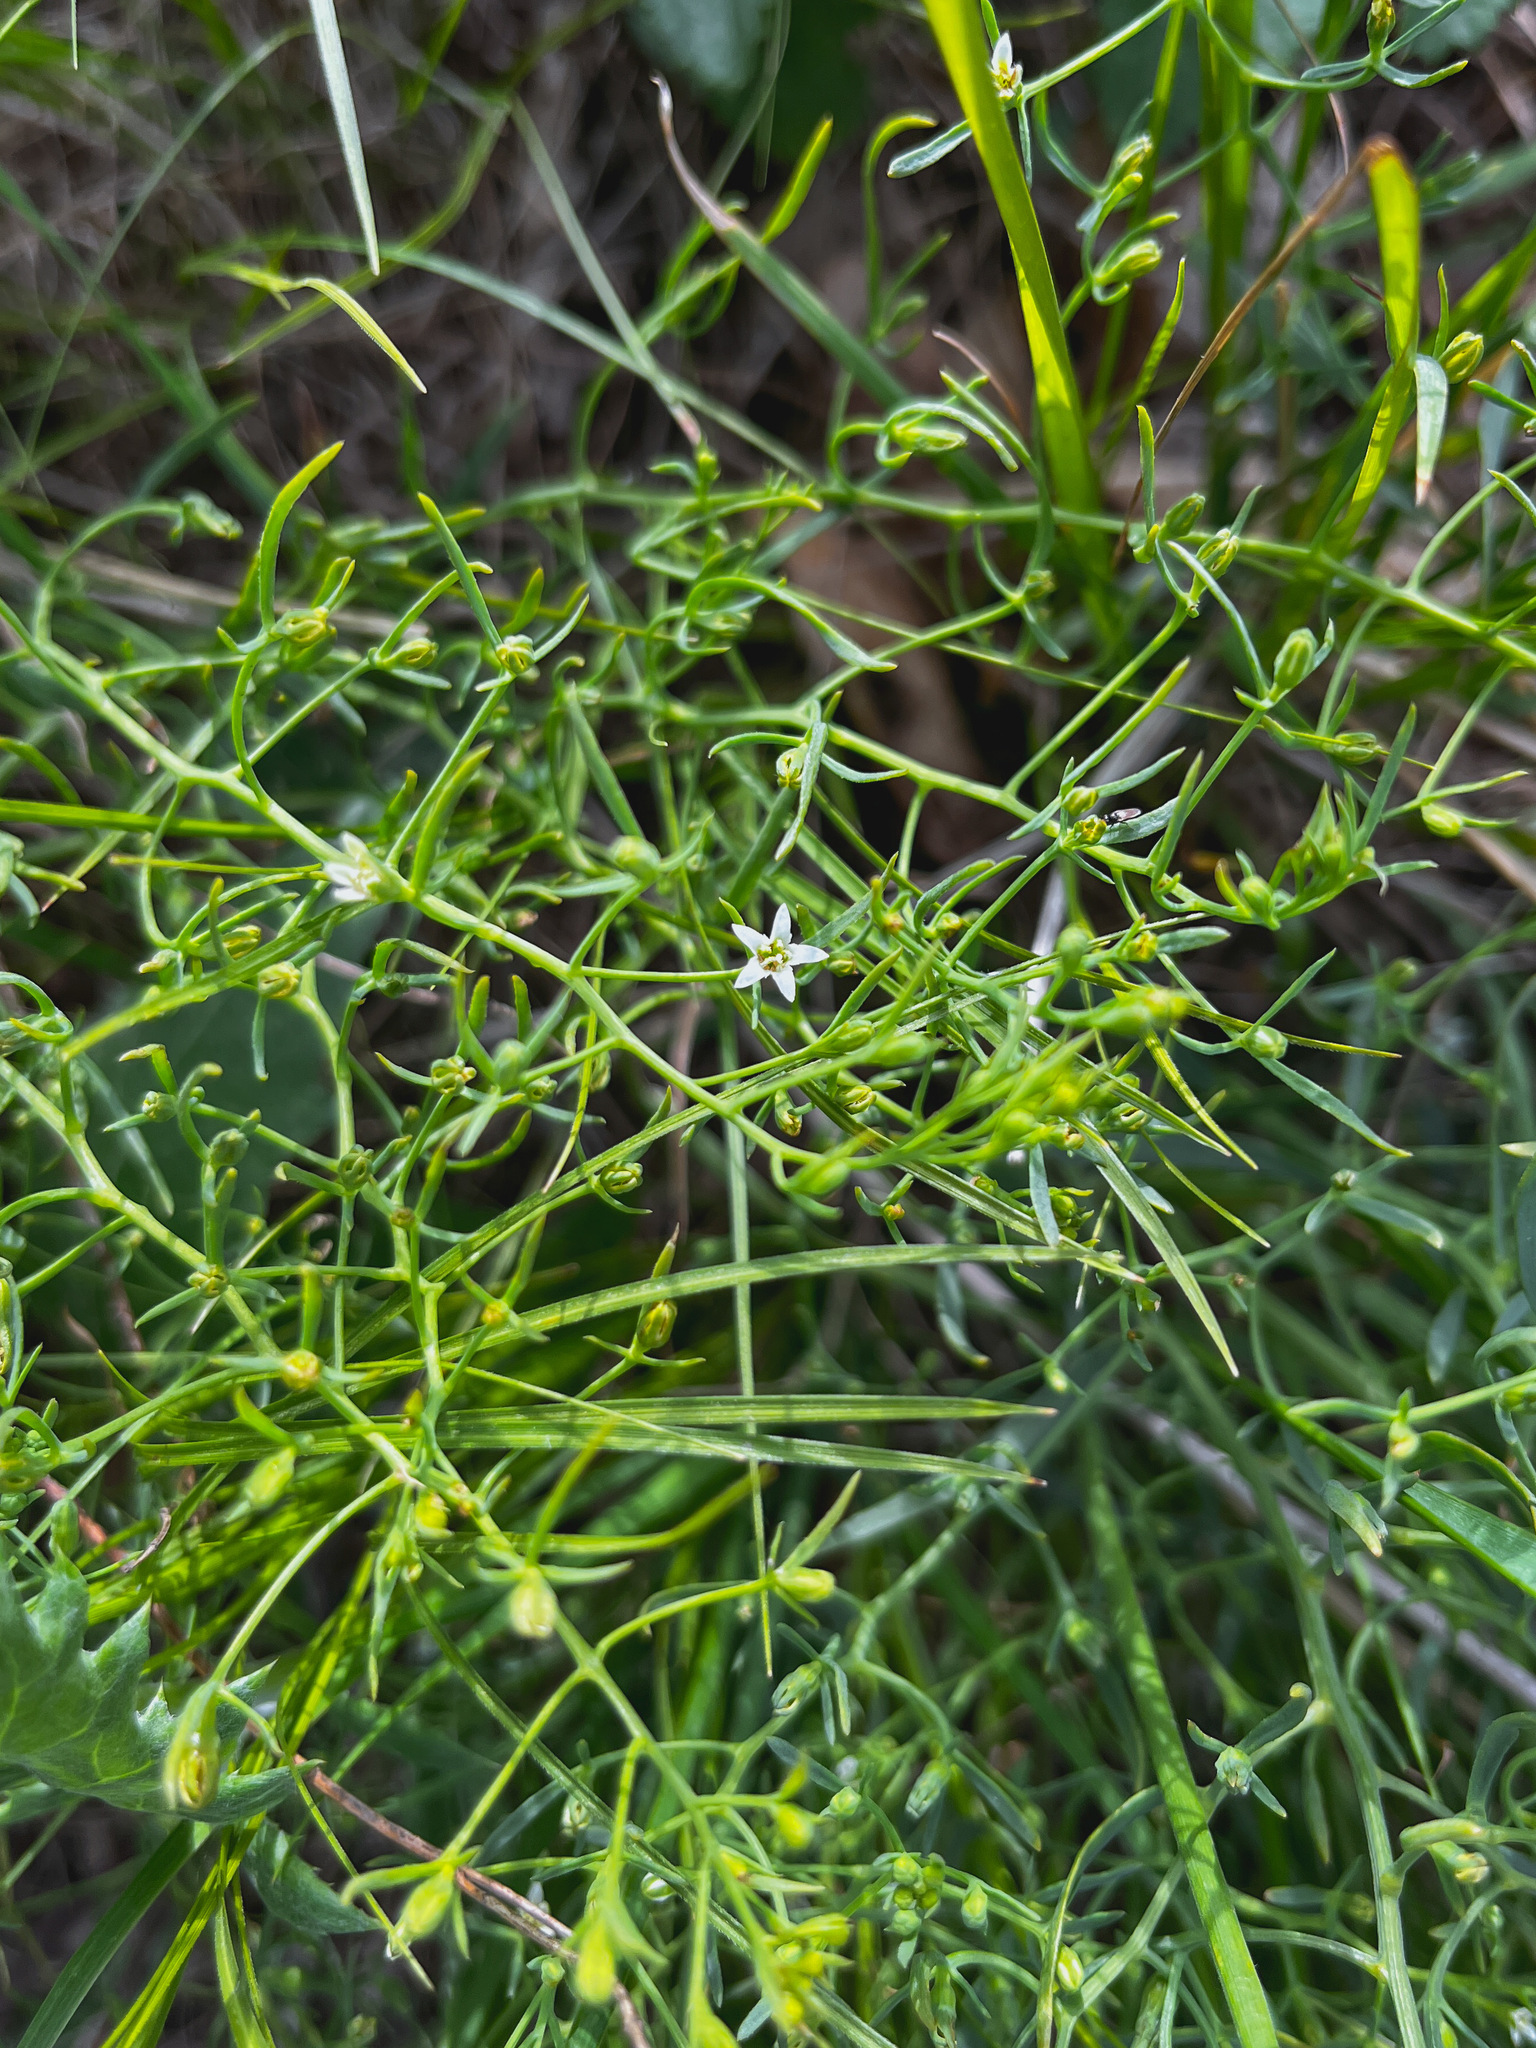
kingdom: Plantae
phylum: Tracheophyta
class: Magnoliopsida
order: Santalales
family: Thesiaceae
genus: Thesium
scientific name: Thesium longifolium
